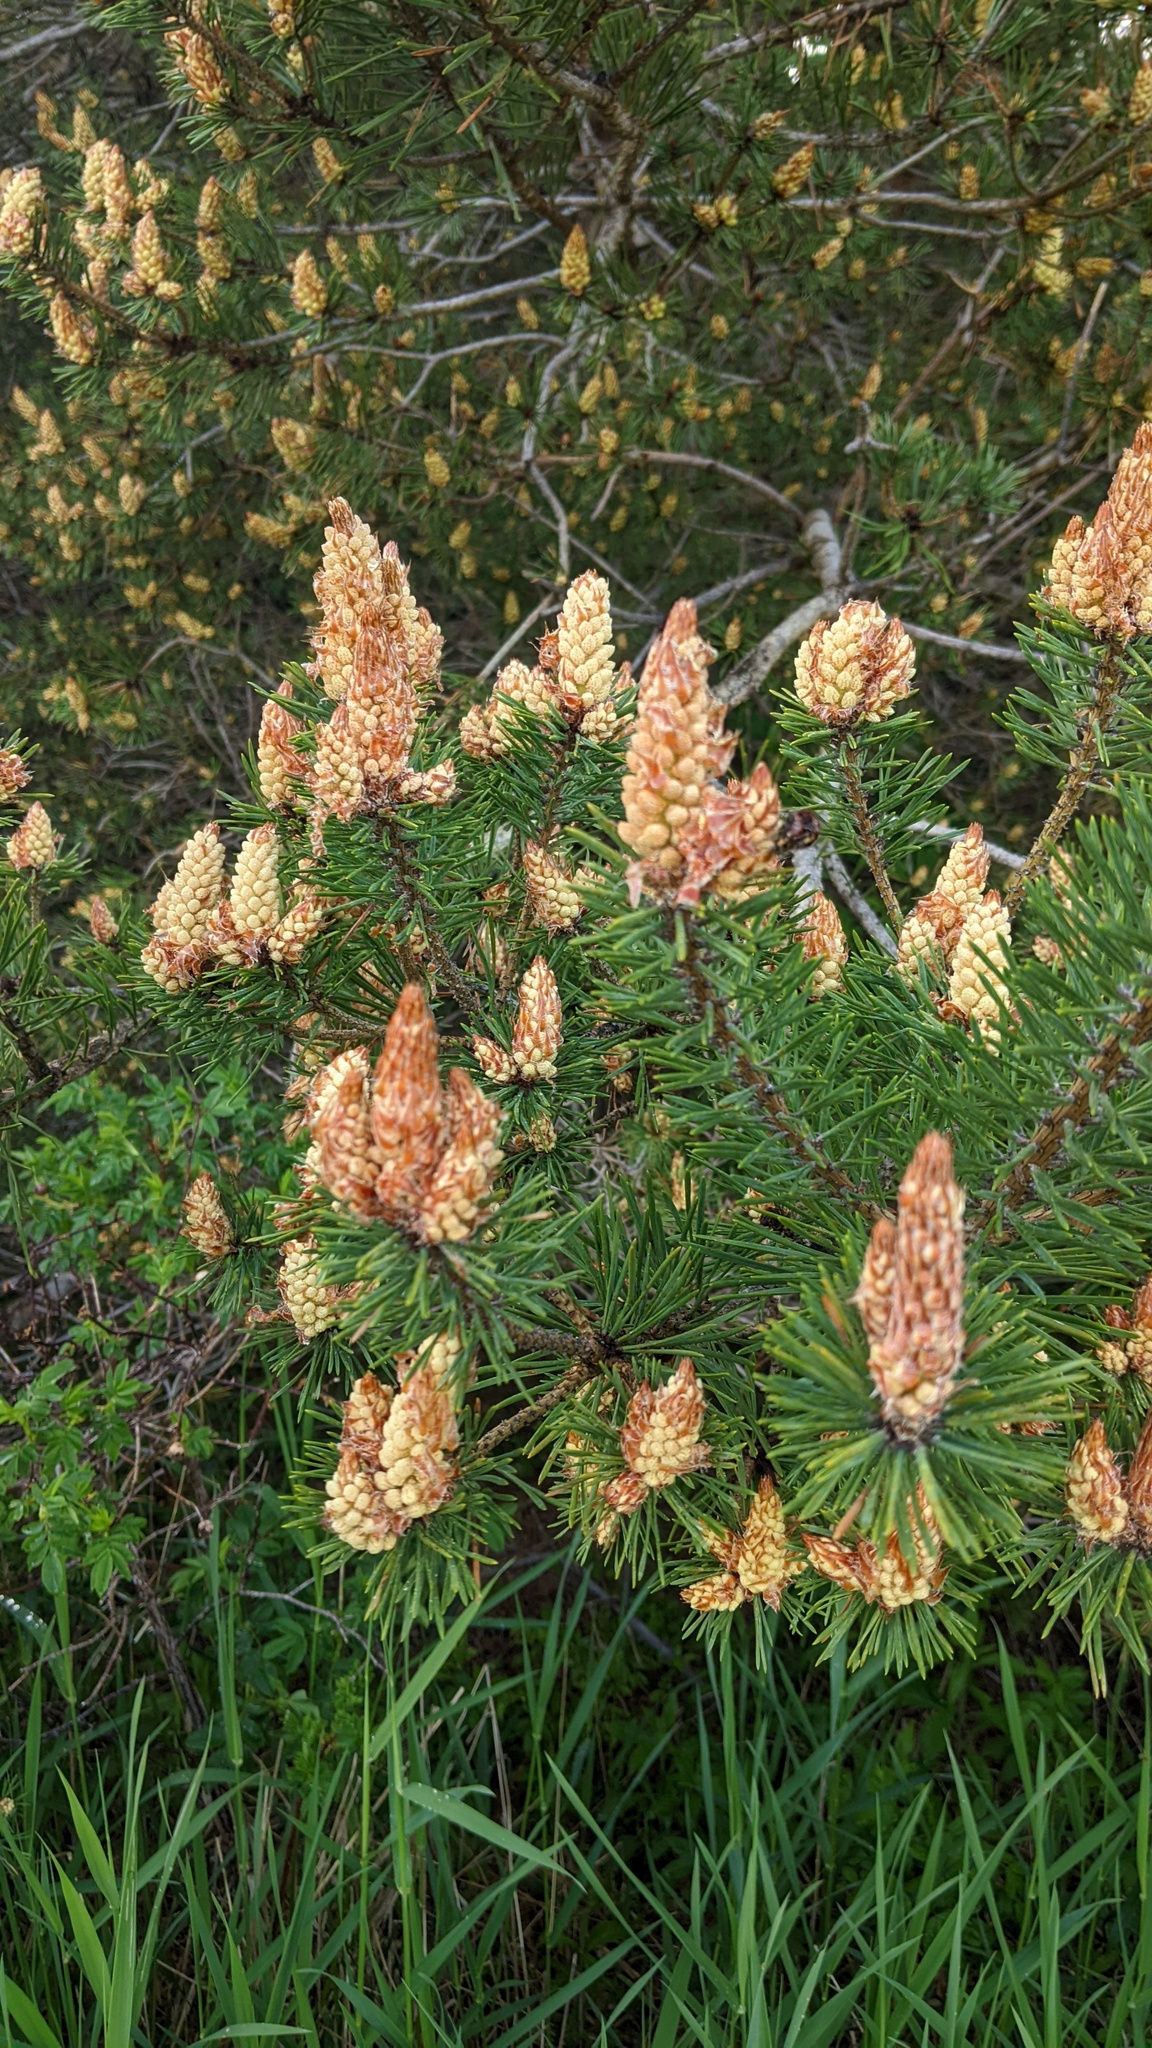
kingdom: Plantae
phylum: Tracheophyta
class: Pinopsida
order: Pinales
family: Pinaceae
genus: Pinus
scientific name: Pinus sylvestris
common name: Scots pine
